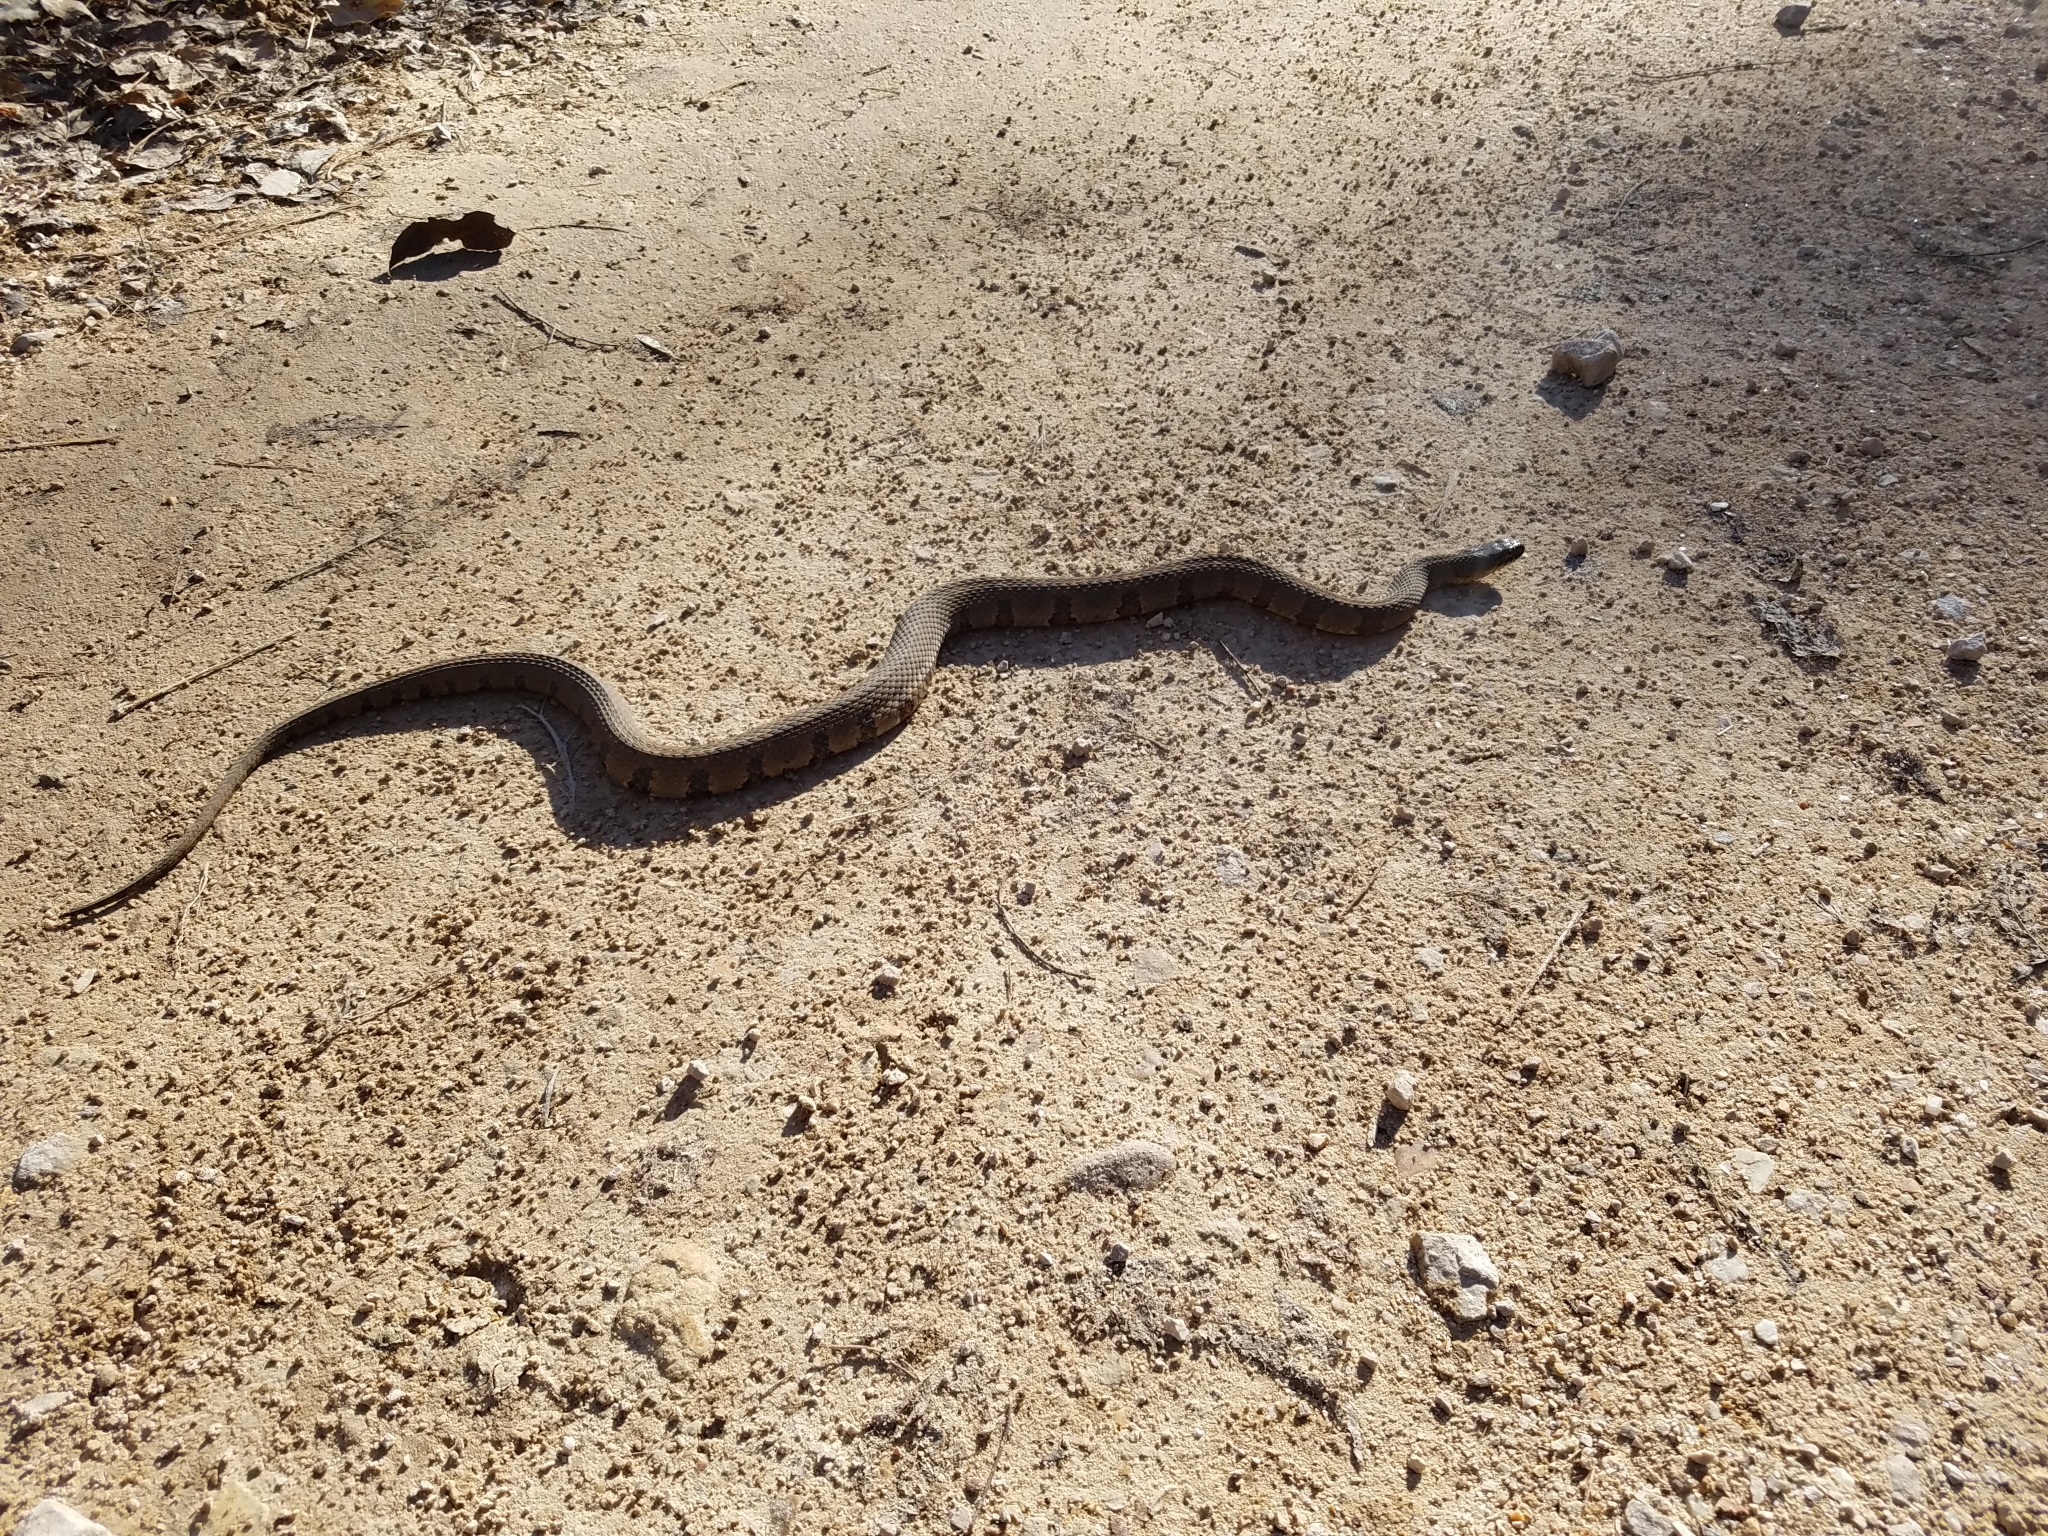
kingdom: Animalia
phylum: Chordata
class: Squamata
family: Colubridae
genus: Nerodia
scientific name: Nerodia sipedon
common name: Northern water snake
